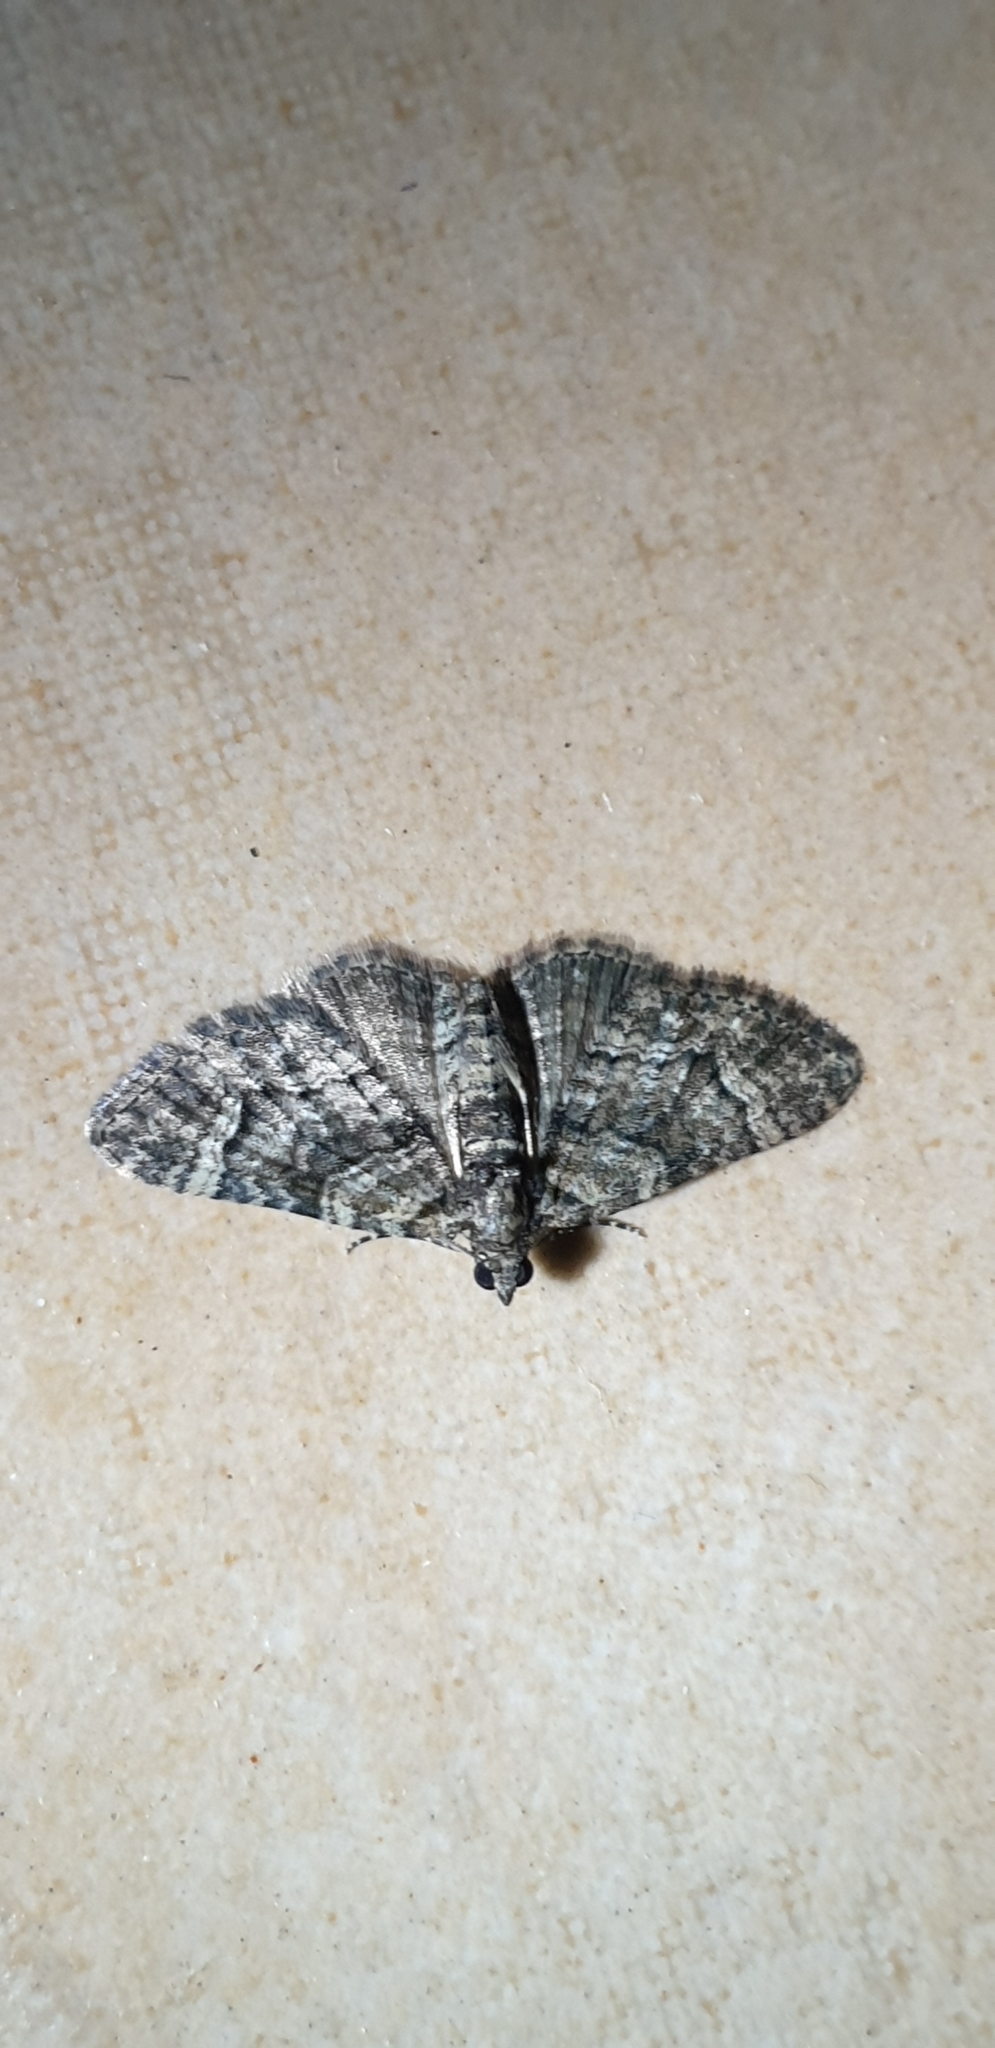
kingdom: Animalia
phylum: Arthropoda
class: Insecta
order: Lepidoptera
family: Geometridae
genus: Epyaxa
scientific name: Epyaxa sodaliata
